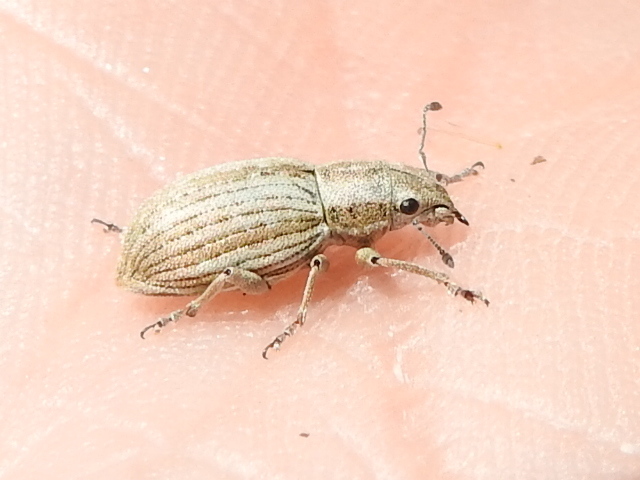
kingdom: Animalia
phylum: Arthropoda
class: Insecta
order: Coleoptera
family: Curculionidae
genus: Aramigus
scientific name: Aramigus tessellatus
